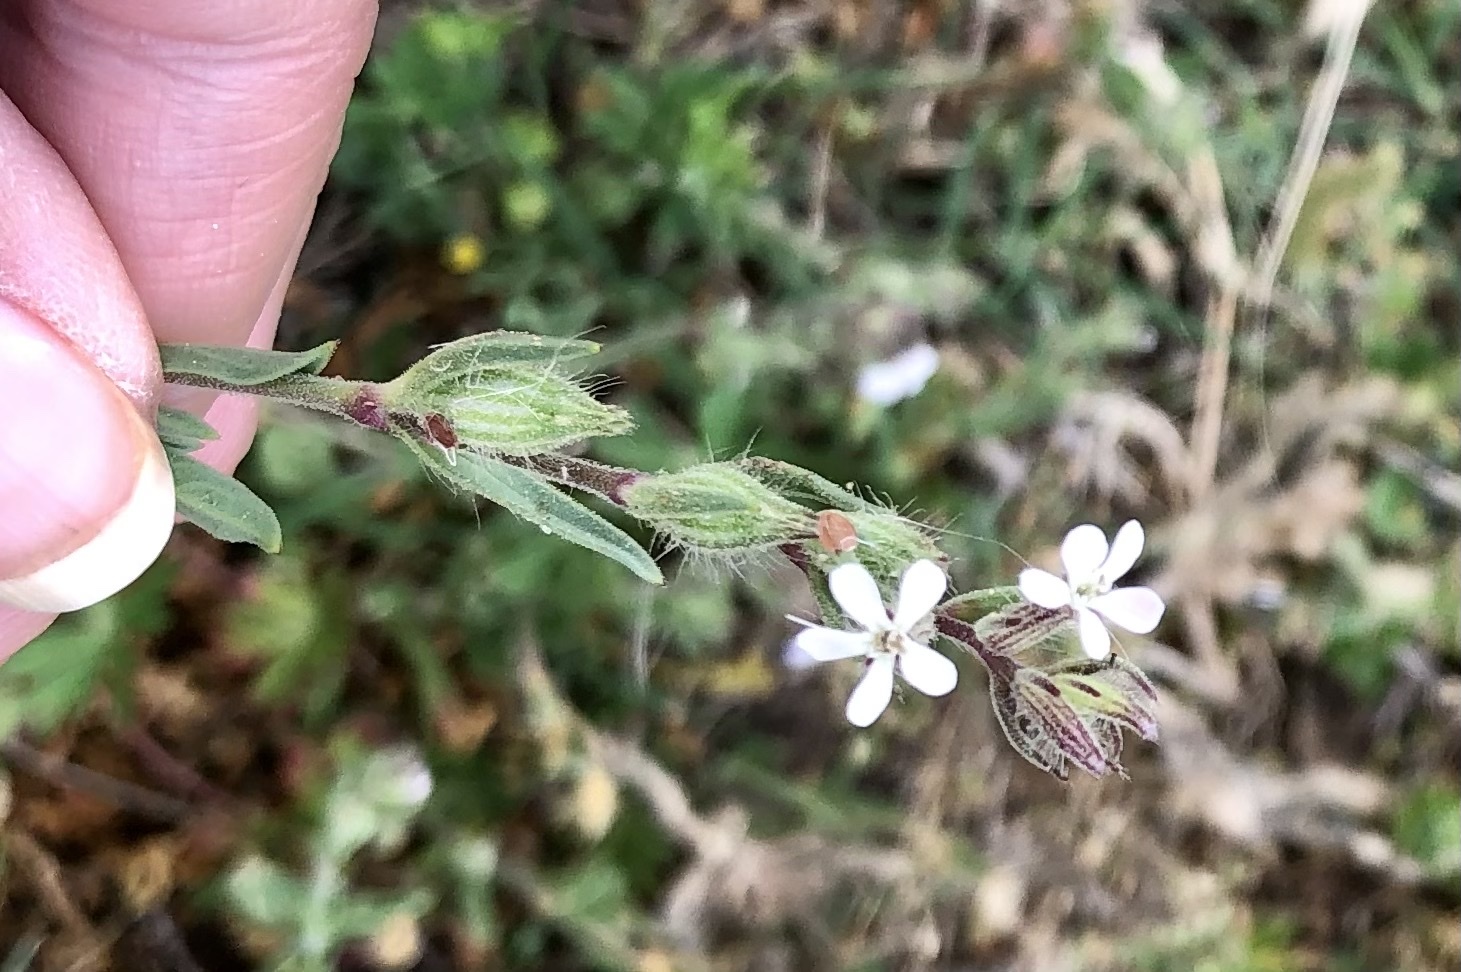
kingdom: Plantae
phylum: Tracheophyta
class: Magnoliopsida
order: Caryophyllales
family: Caryophyllaceae
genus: Silene
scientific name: Silene gallica
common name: Small-flowered catchfly
